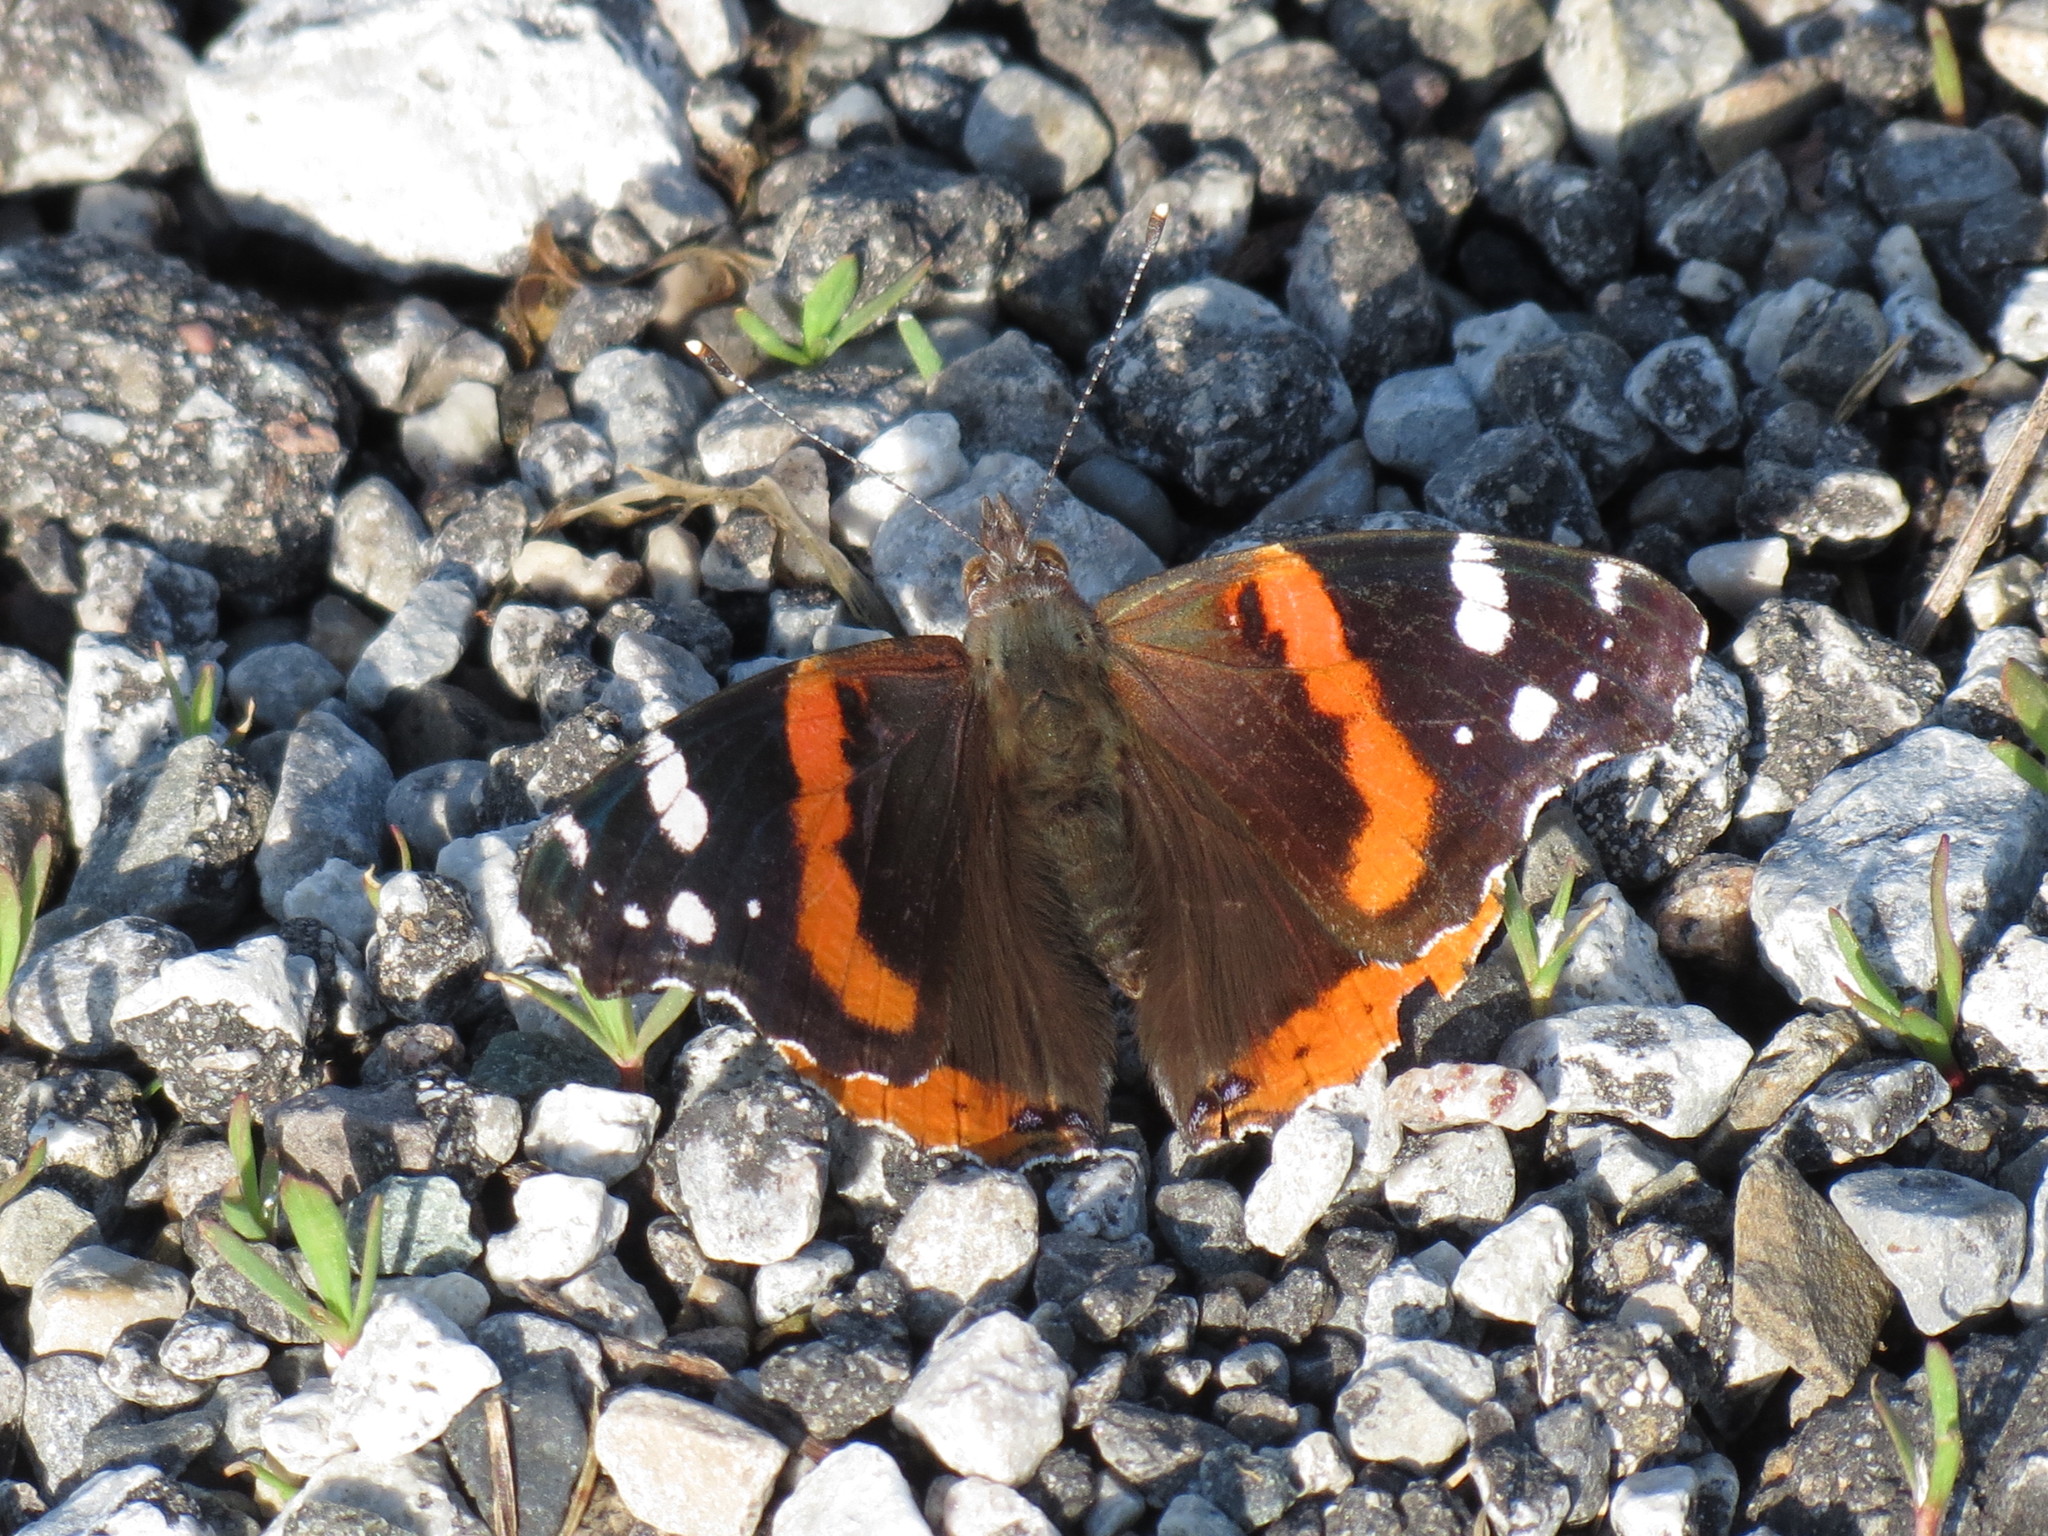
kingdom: Animalia
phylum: Arthropoda
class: Insecta
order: Lepidoptera
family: Nymphalidae
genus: Vanessa
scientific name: Vanessa atalanta
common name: Red admiral
